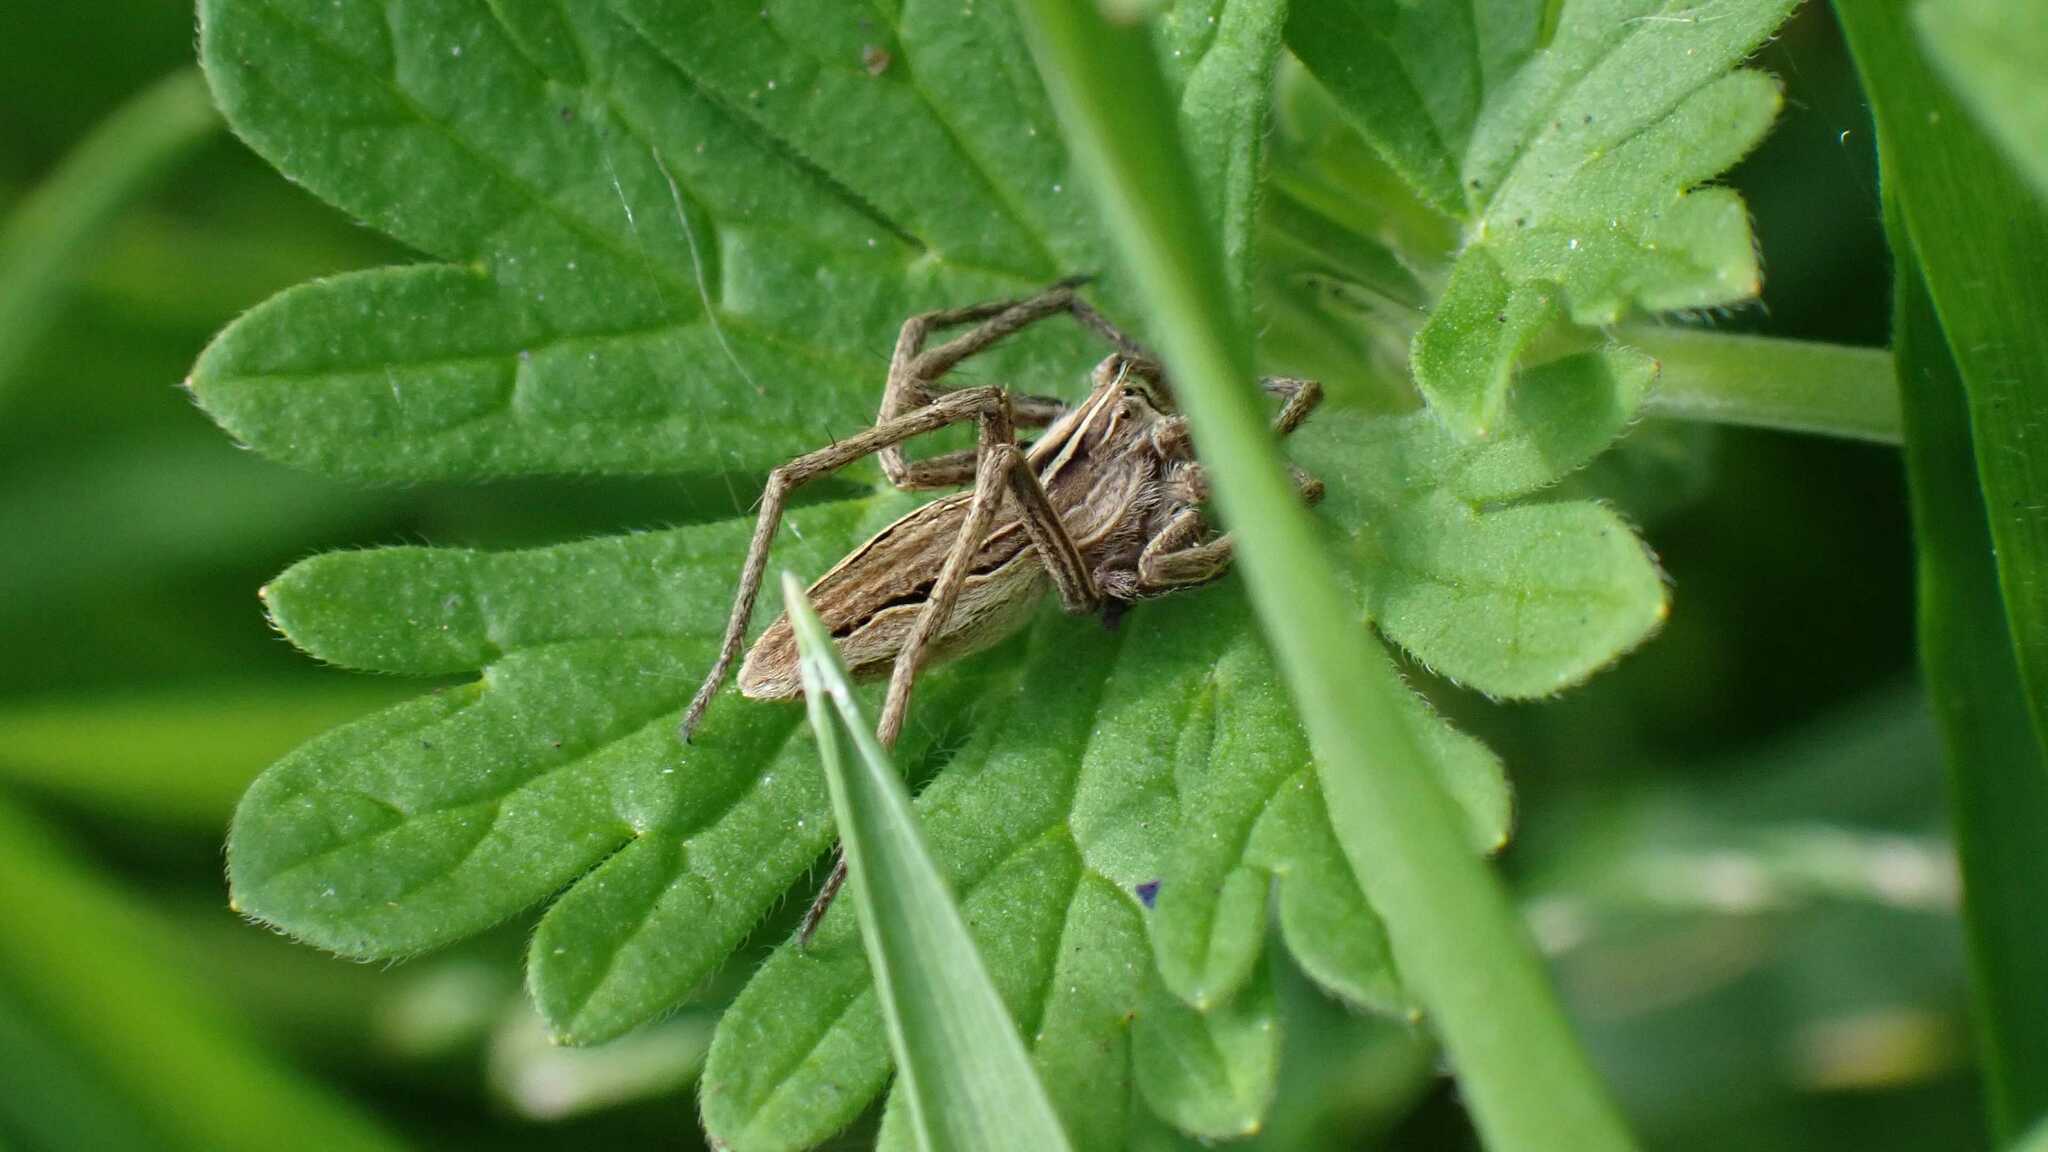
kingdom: Animalia
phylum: Arthropoda
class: Arachnida
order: Araneae
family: Pisauridae
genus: Pisaura
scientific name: Pisaura mirabilis
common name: Tent spider
